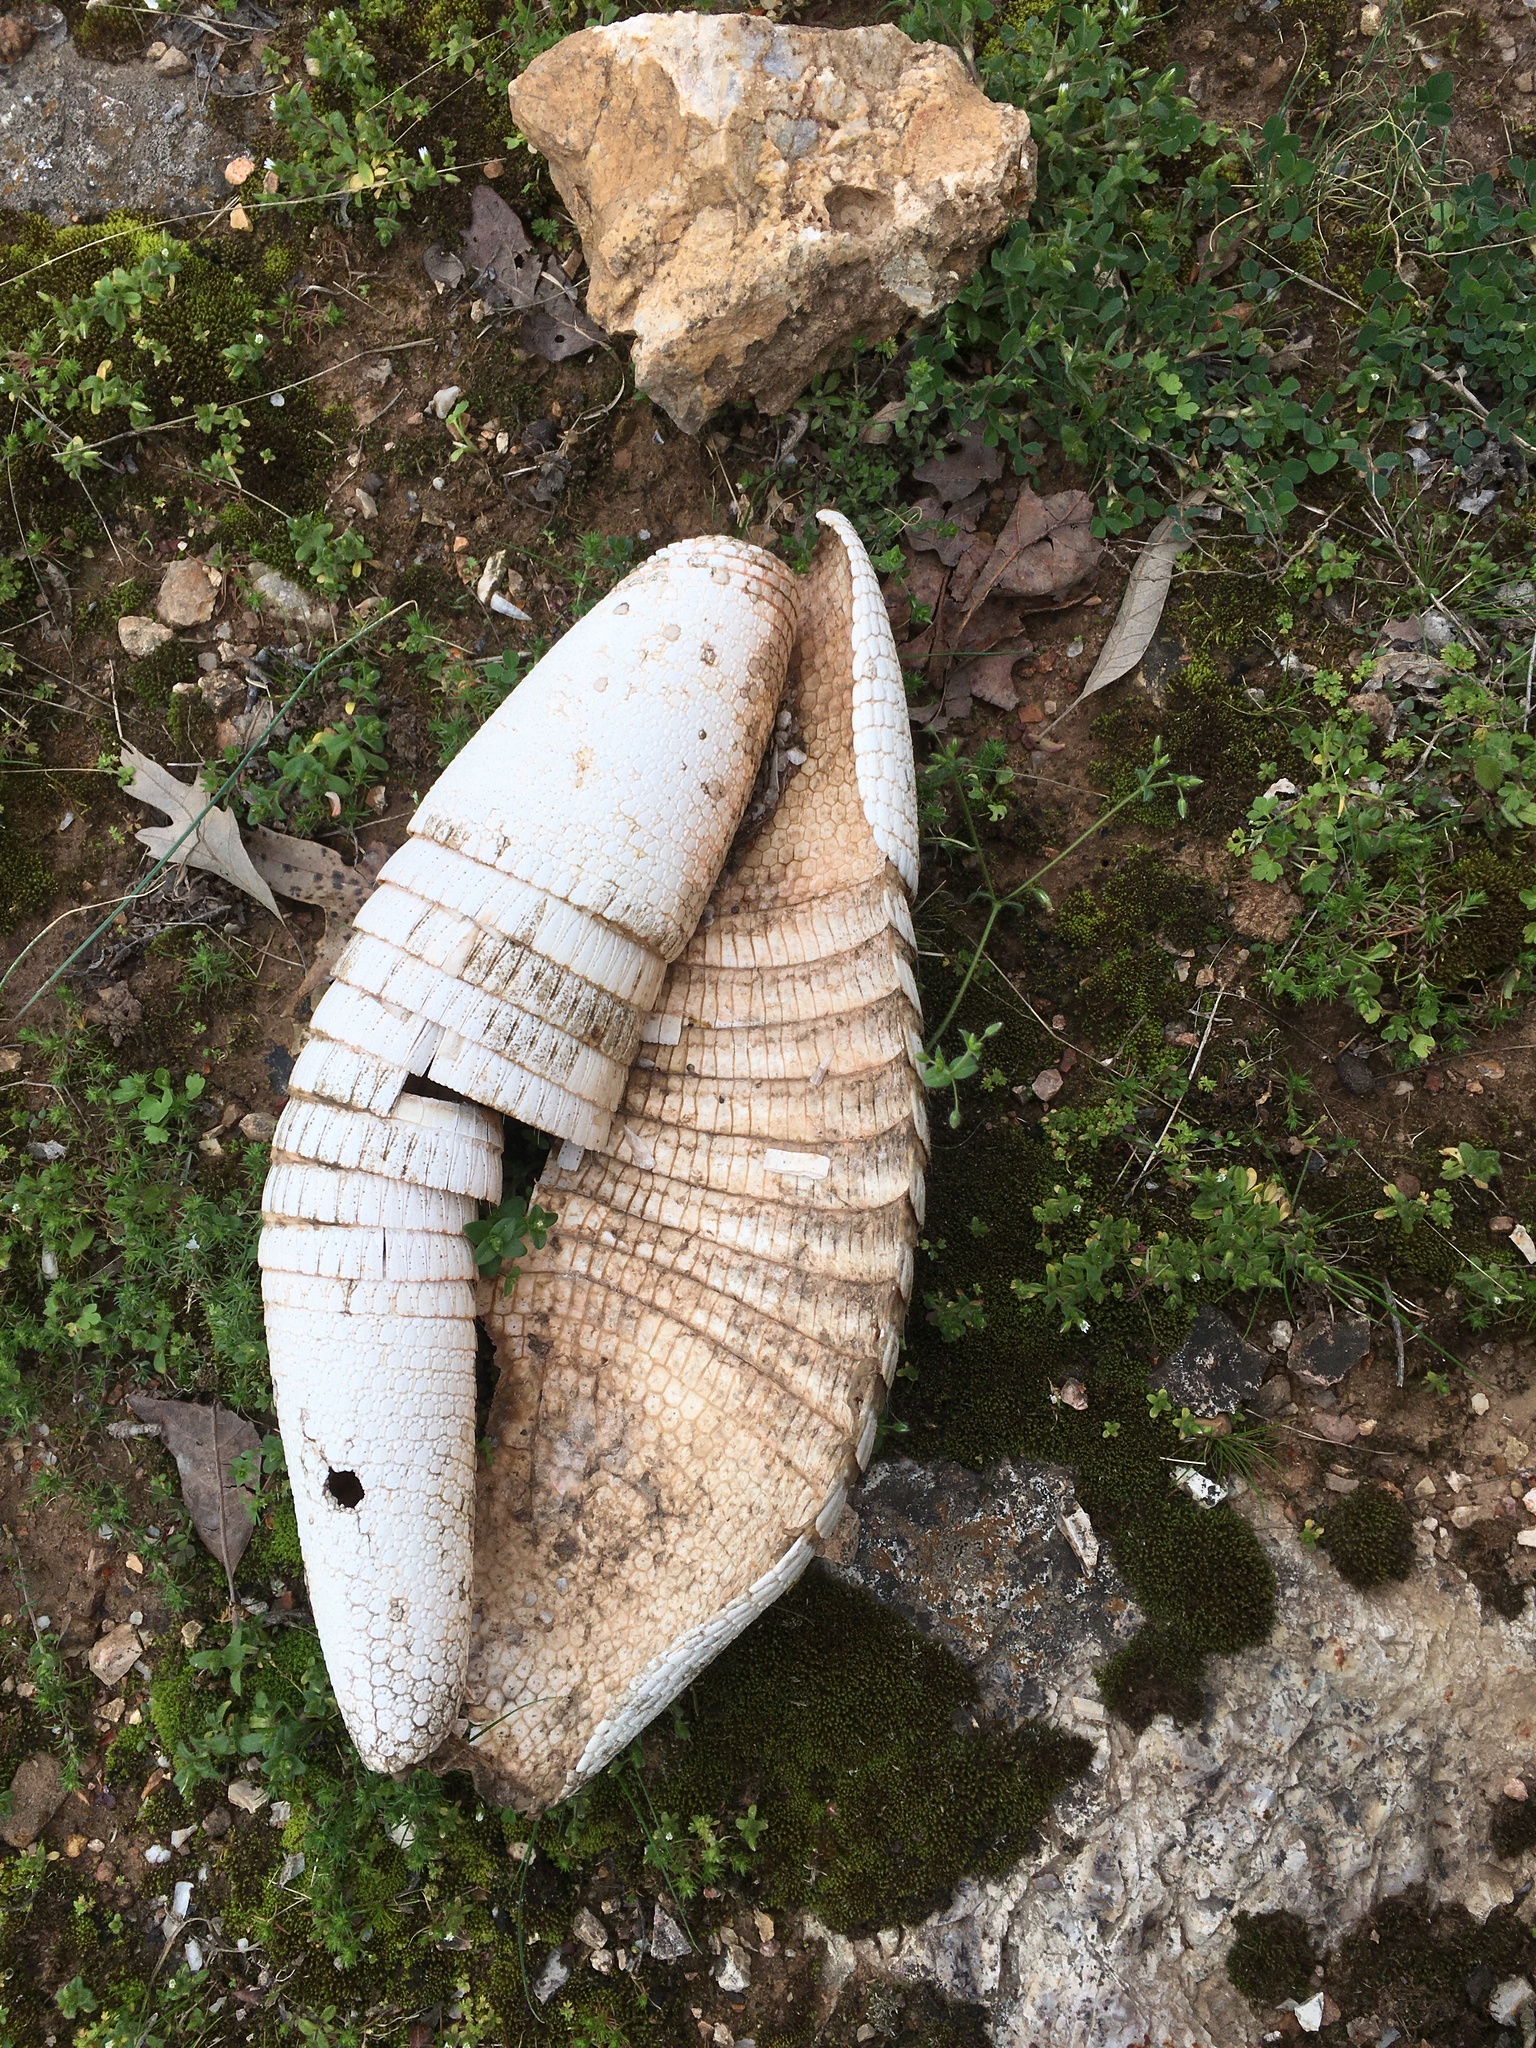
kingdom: Animalia
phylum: Chordata
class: Mammalia
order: Cingulata
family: Dasypodidae
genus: Dasypus
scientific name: Dasypus novemcinctus
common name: Nine-banded armadillo
